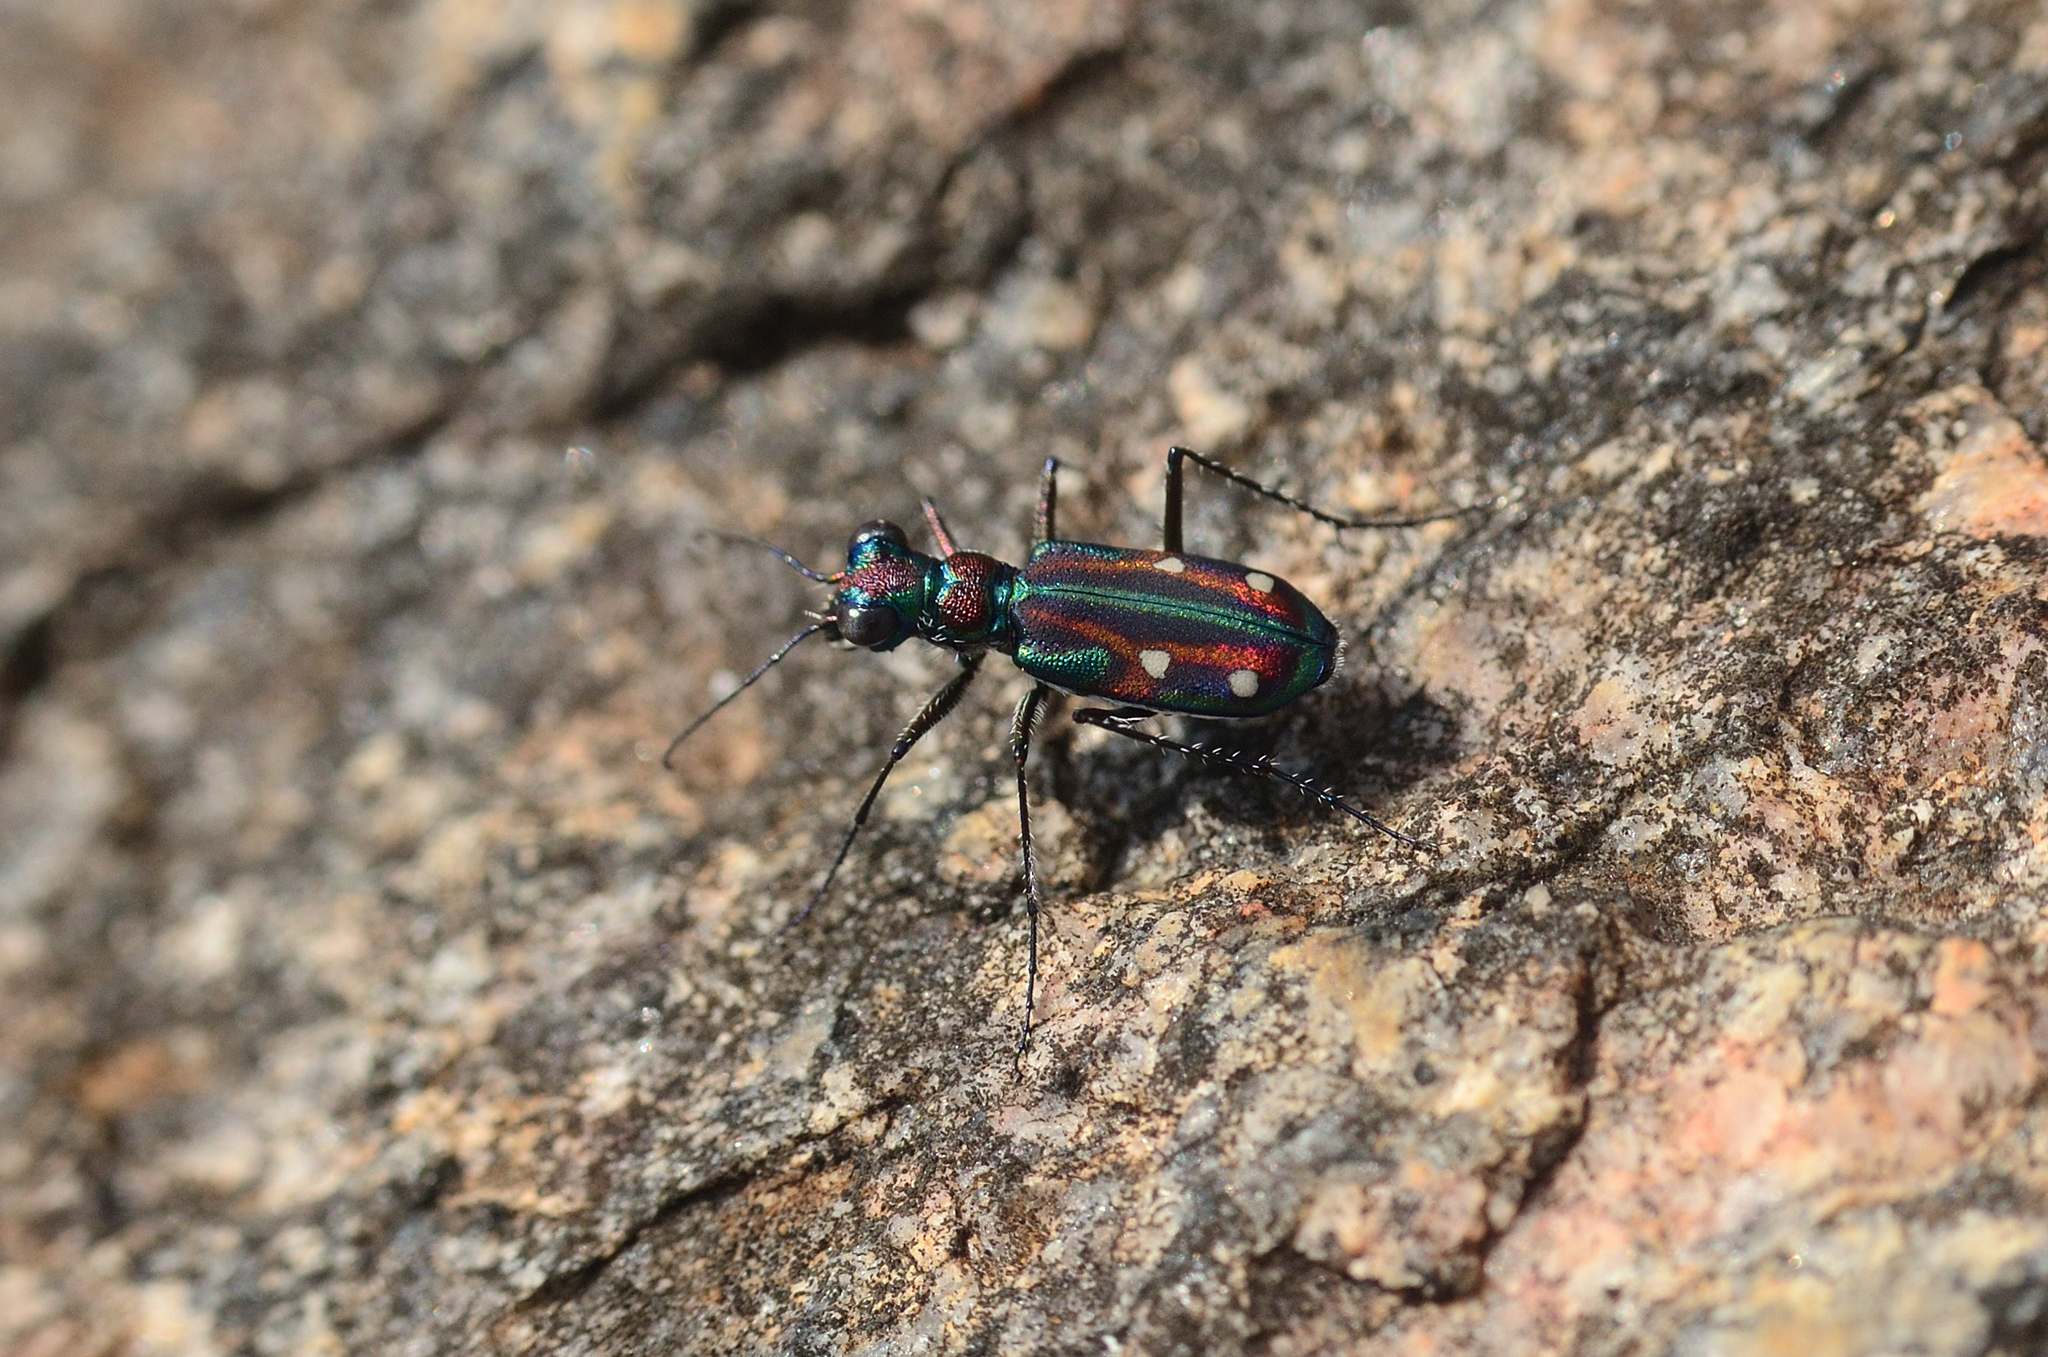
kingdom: Animalia
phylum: Arthropoda
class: Insecta
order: Coleoptera
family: Carabidae
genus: Jansenia
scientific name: Jansenia rugosiceps
